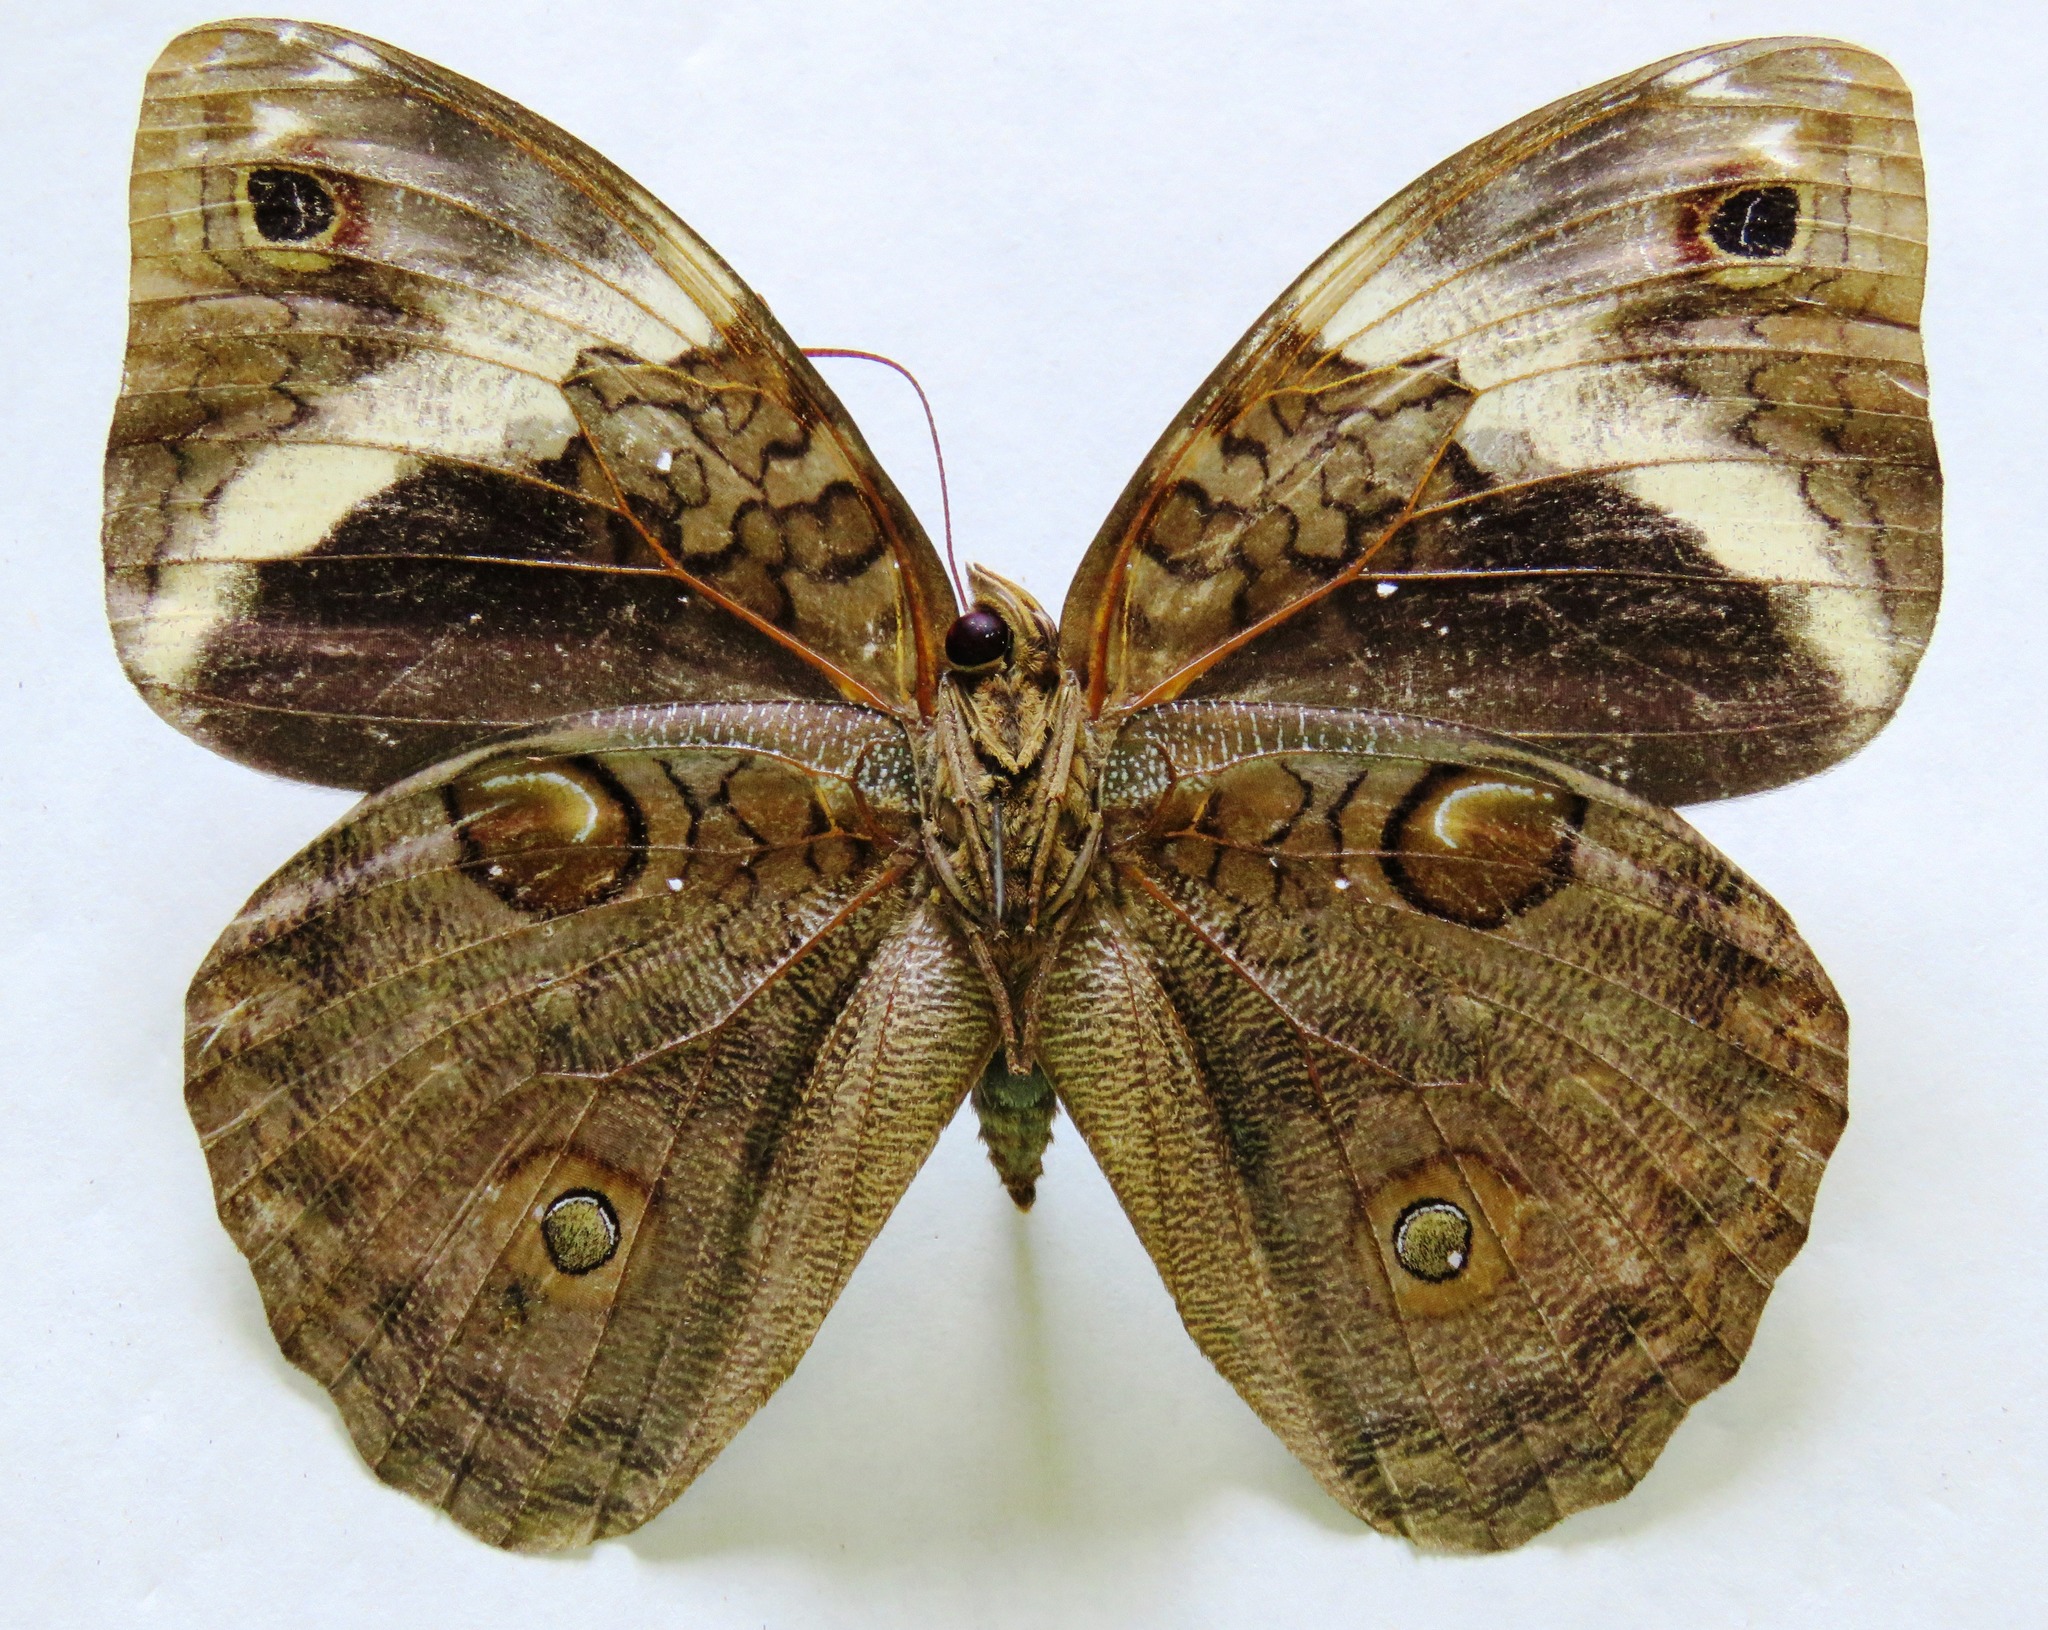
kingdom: Animalia
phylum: Arthropoda
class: Insecta
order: Lepidoptera
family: Nymphalidae
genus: Opsiphanes
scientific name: Opsiphanes cassiae
